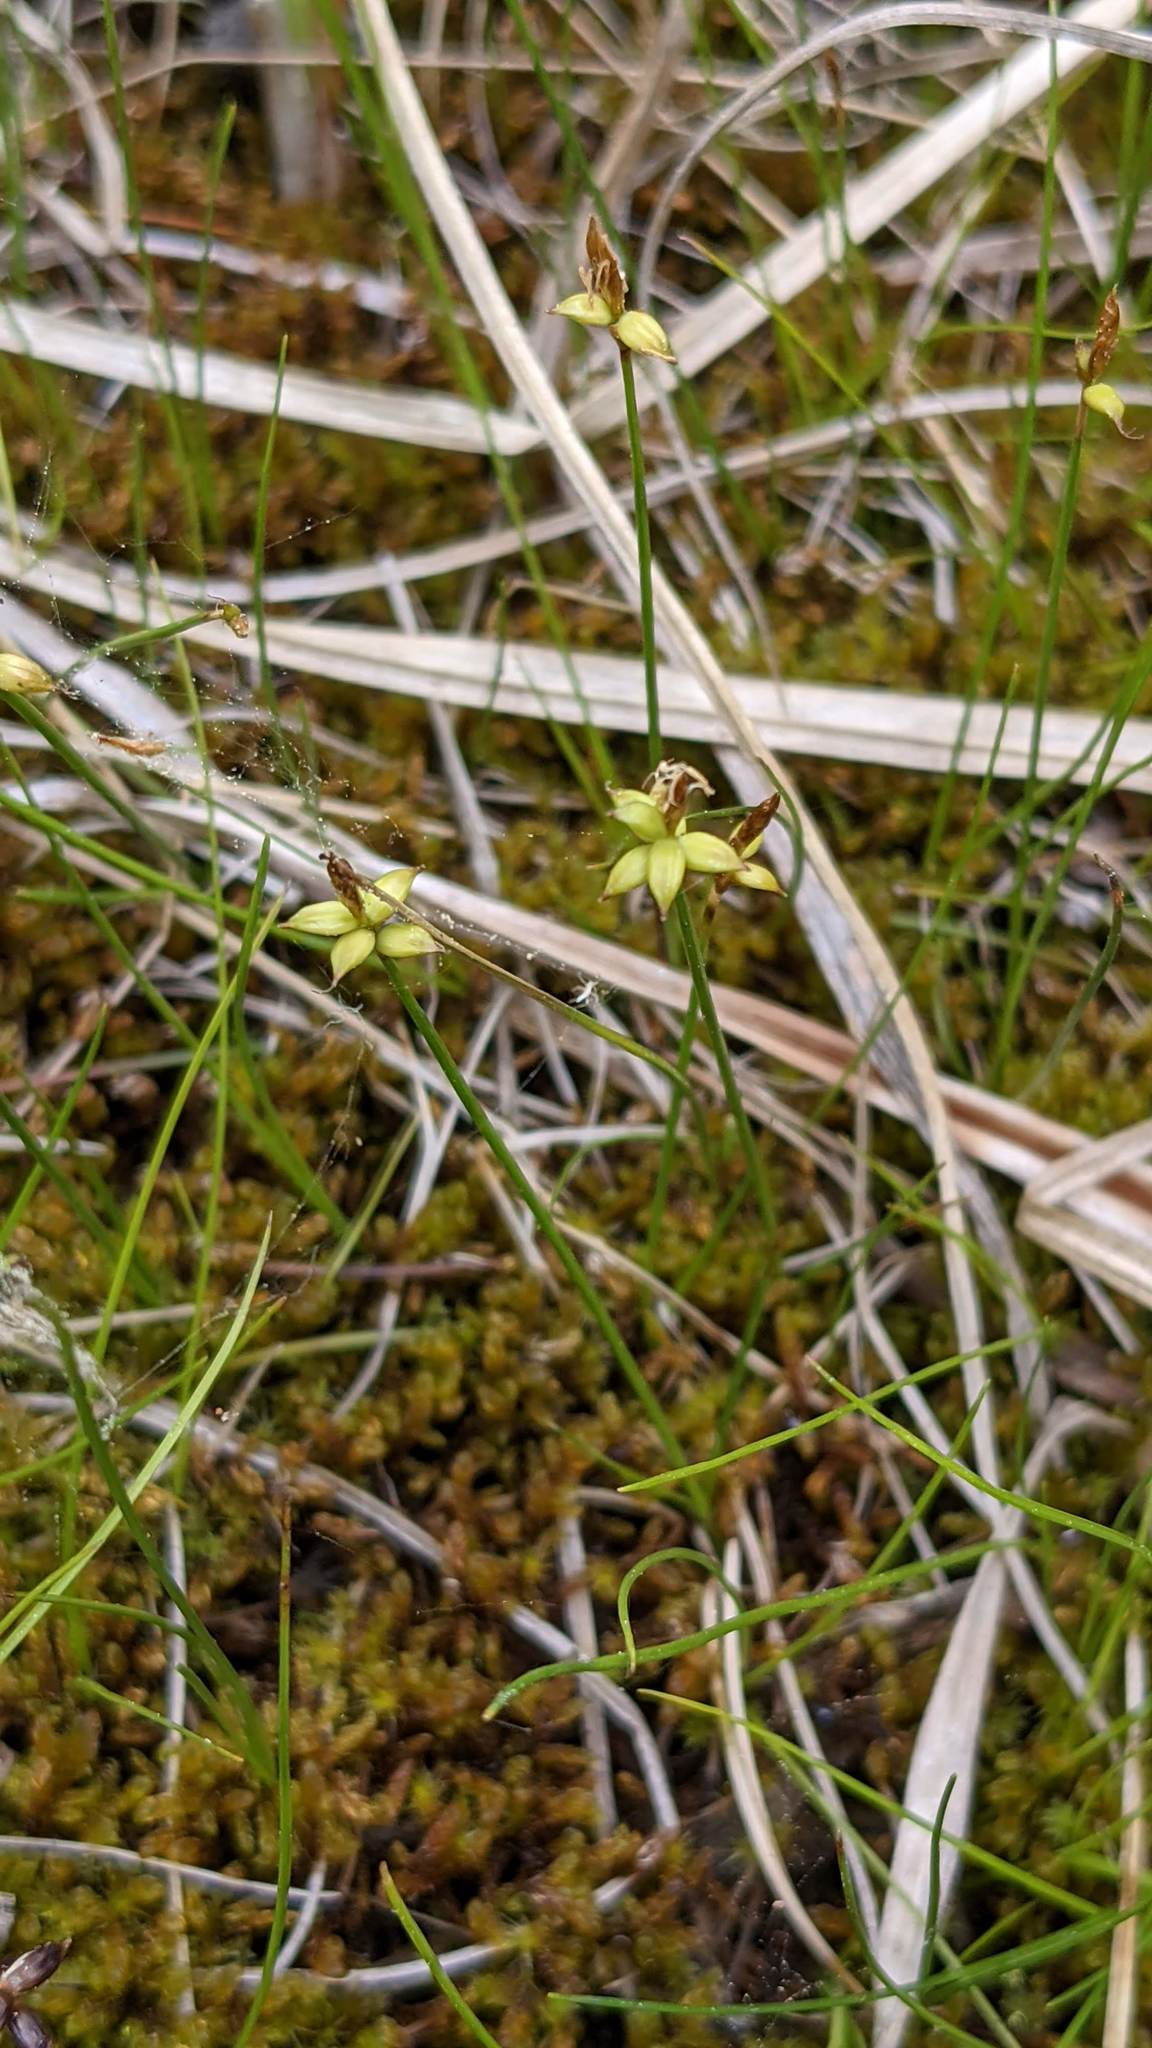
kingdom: Plantae
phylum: Tracheophyta
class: Liliopsida
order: Poales
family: Cyperaceae
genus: Carex
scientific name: Carex alascana
